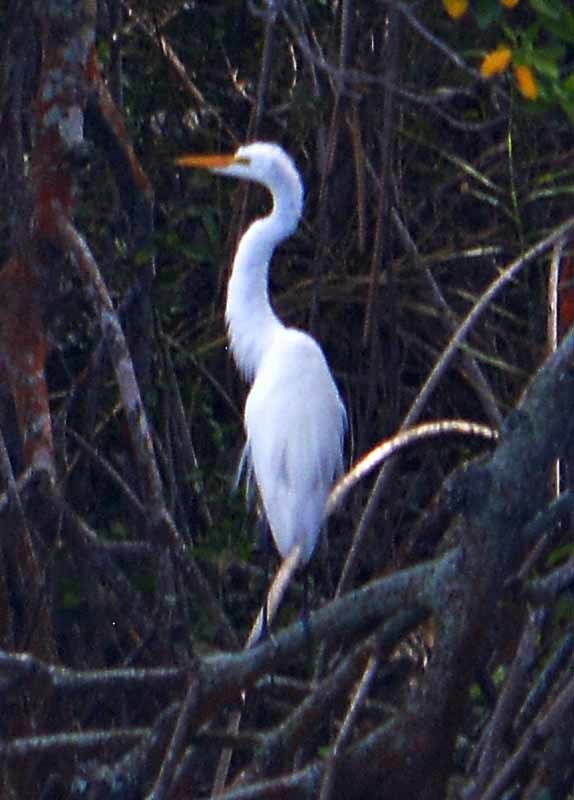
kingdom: Animalia
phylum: Chordata
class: Aves
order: Pelecaniformes
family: Ardeidae
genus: Ardea
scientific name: Ardea alba
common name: Great egret
